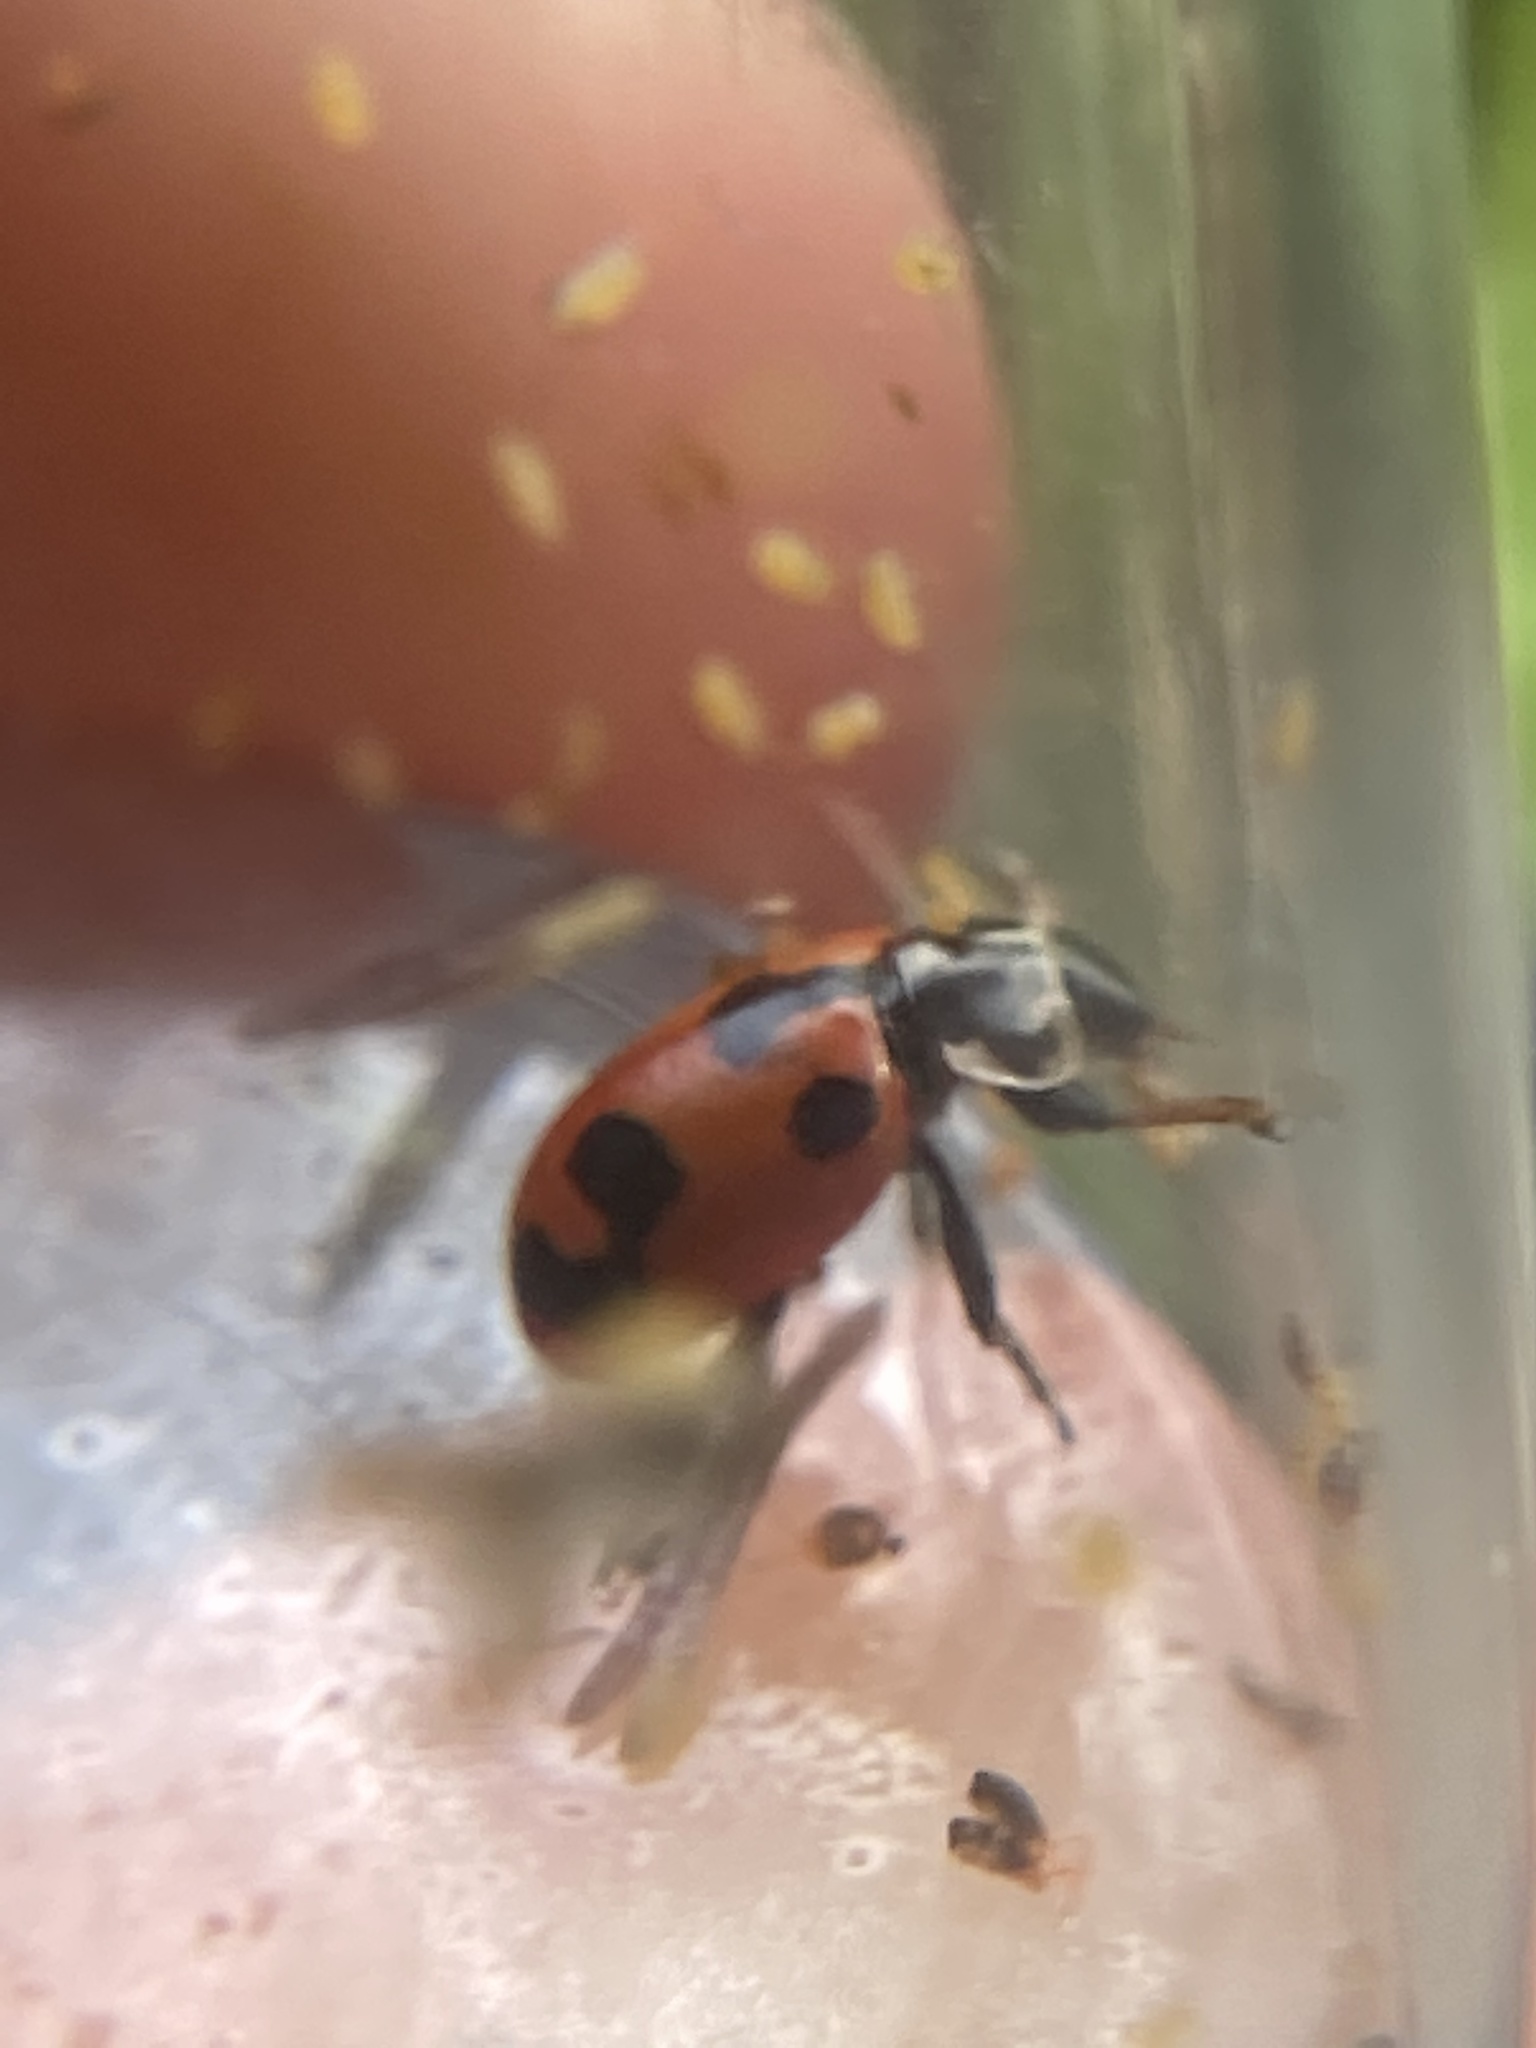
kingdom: Animalia
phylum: Arthropoda
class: Insecta
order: Coleoptera
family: Coccinellidae
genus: Hippodamia
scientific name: Hippodamia parenthesis
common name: Parenthesis lady beetle
